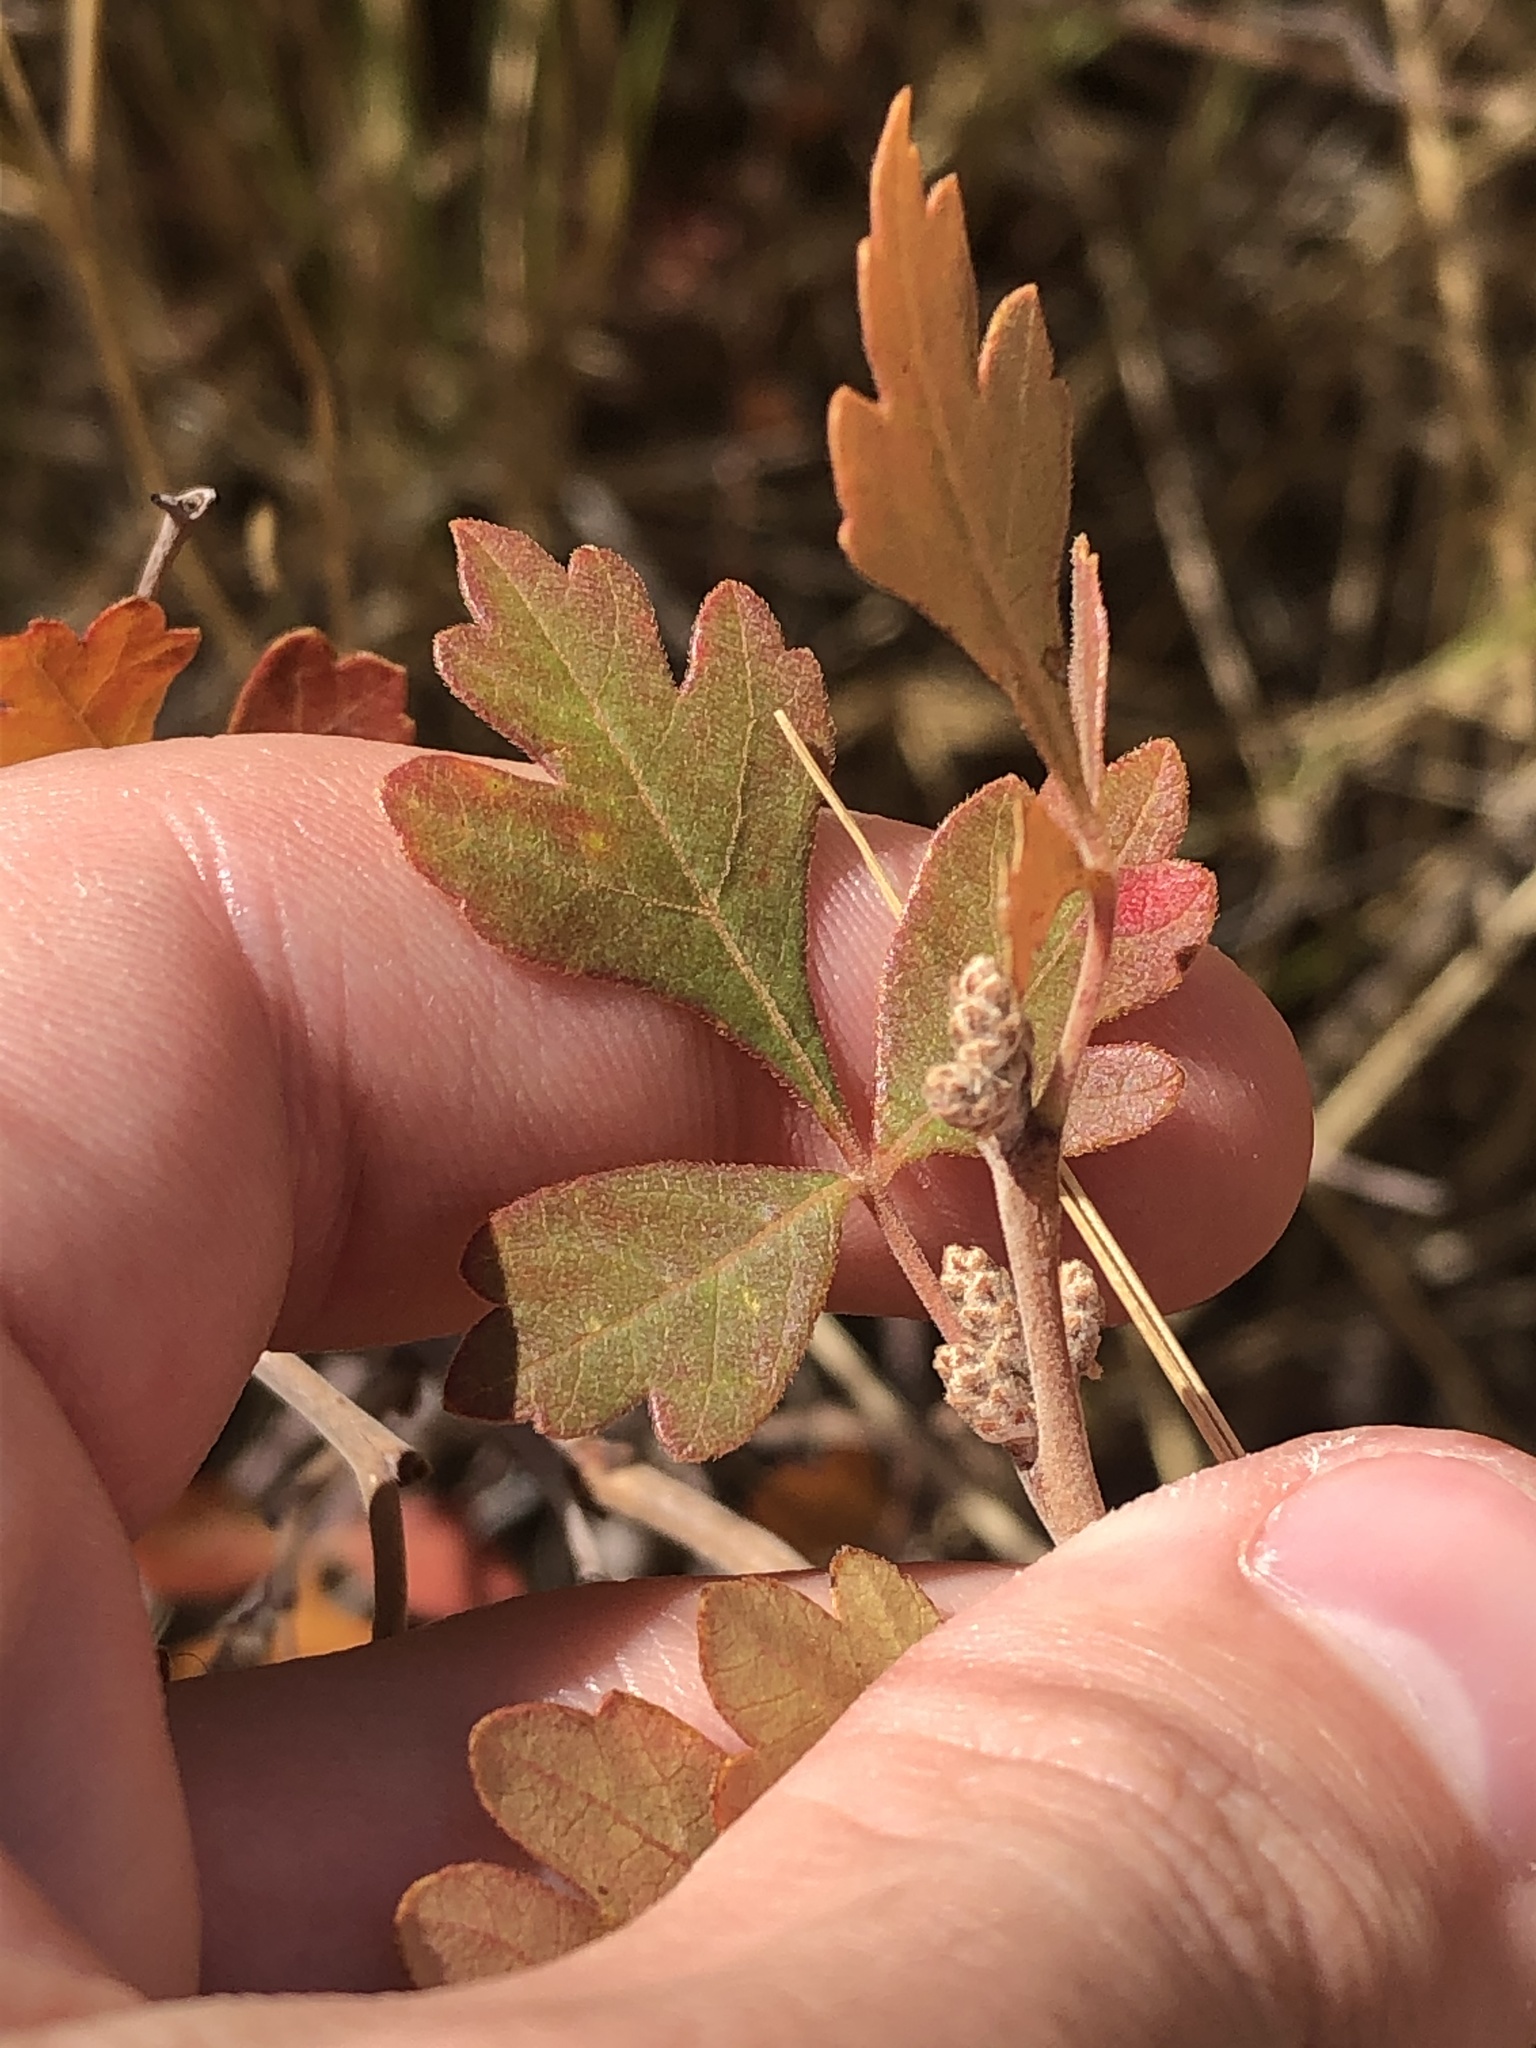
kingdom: Plantae
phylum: Tracheophyta
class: Magnoliopsida
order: Sapindales
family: Anacardiaceae
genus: Rhus
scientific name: Rhus trilobata
